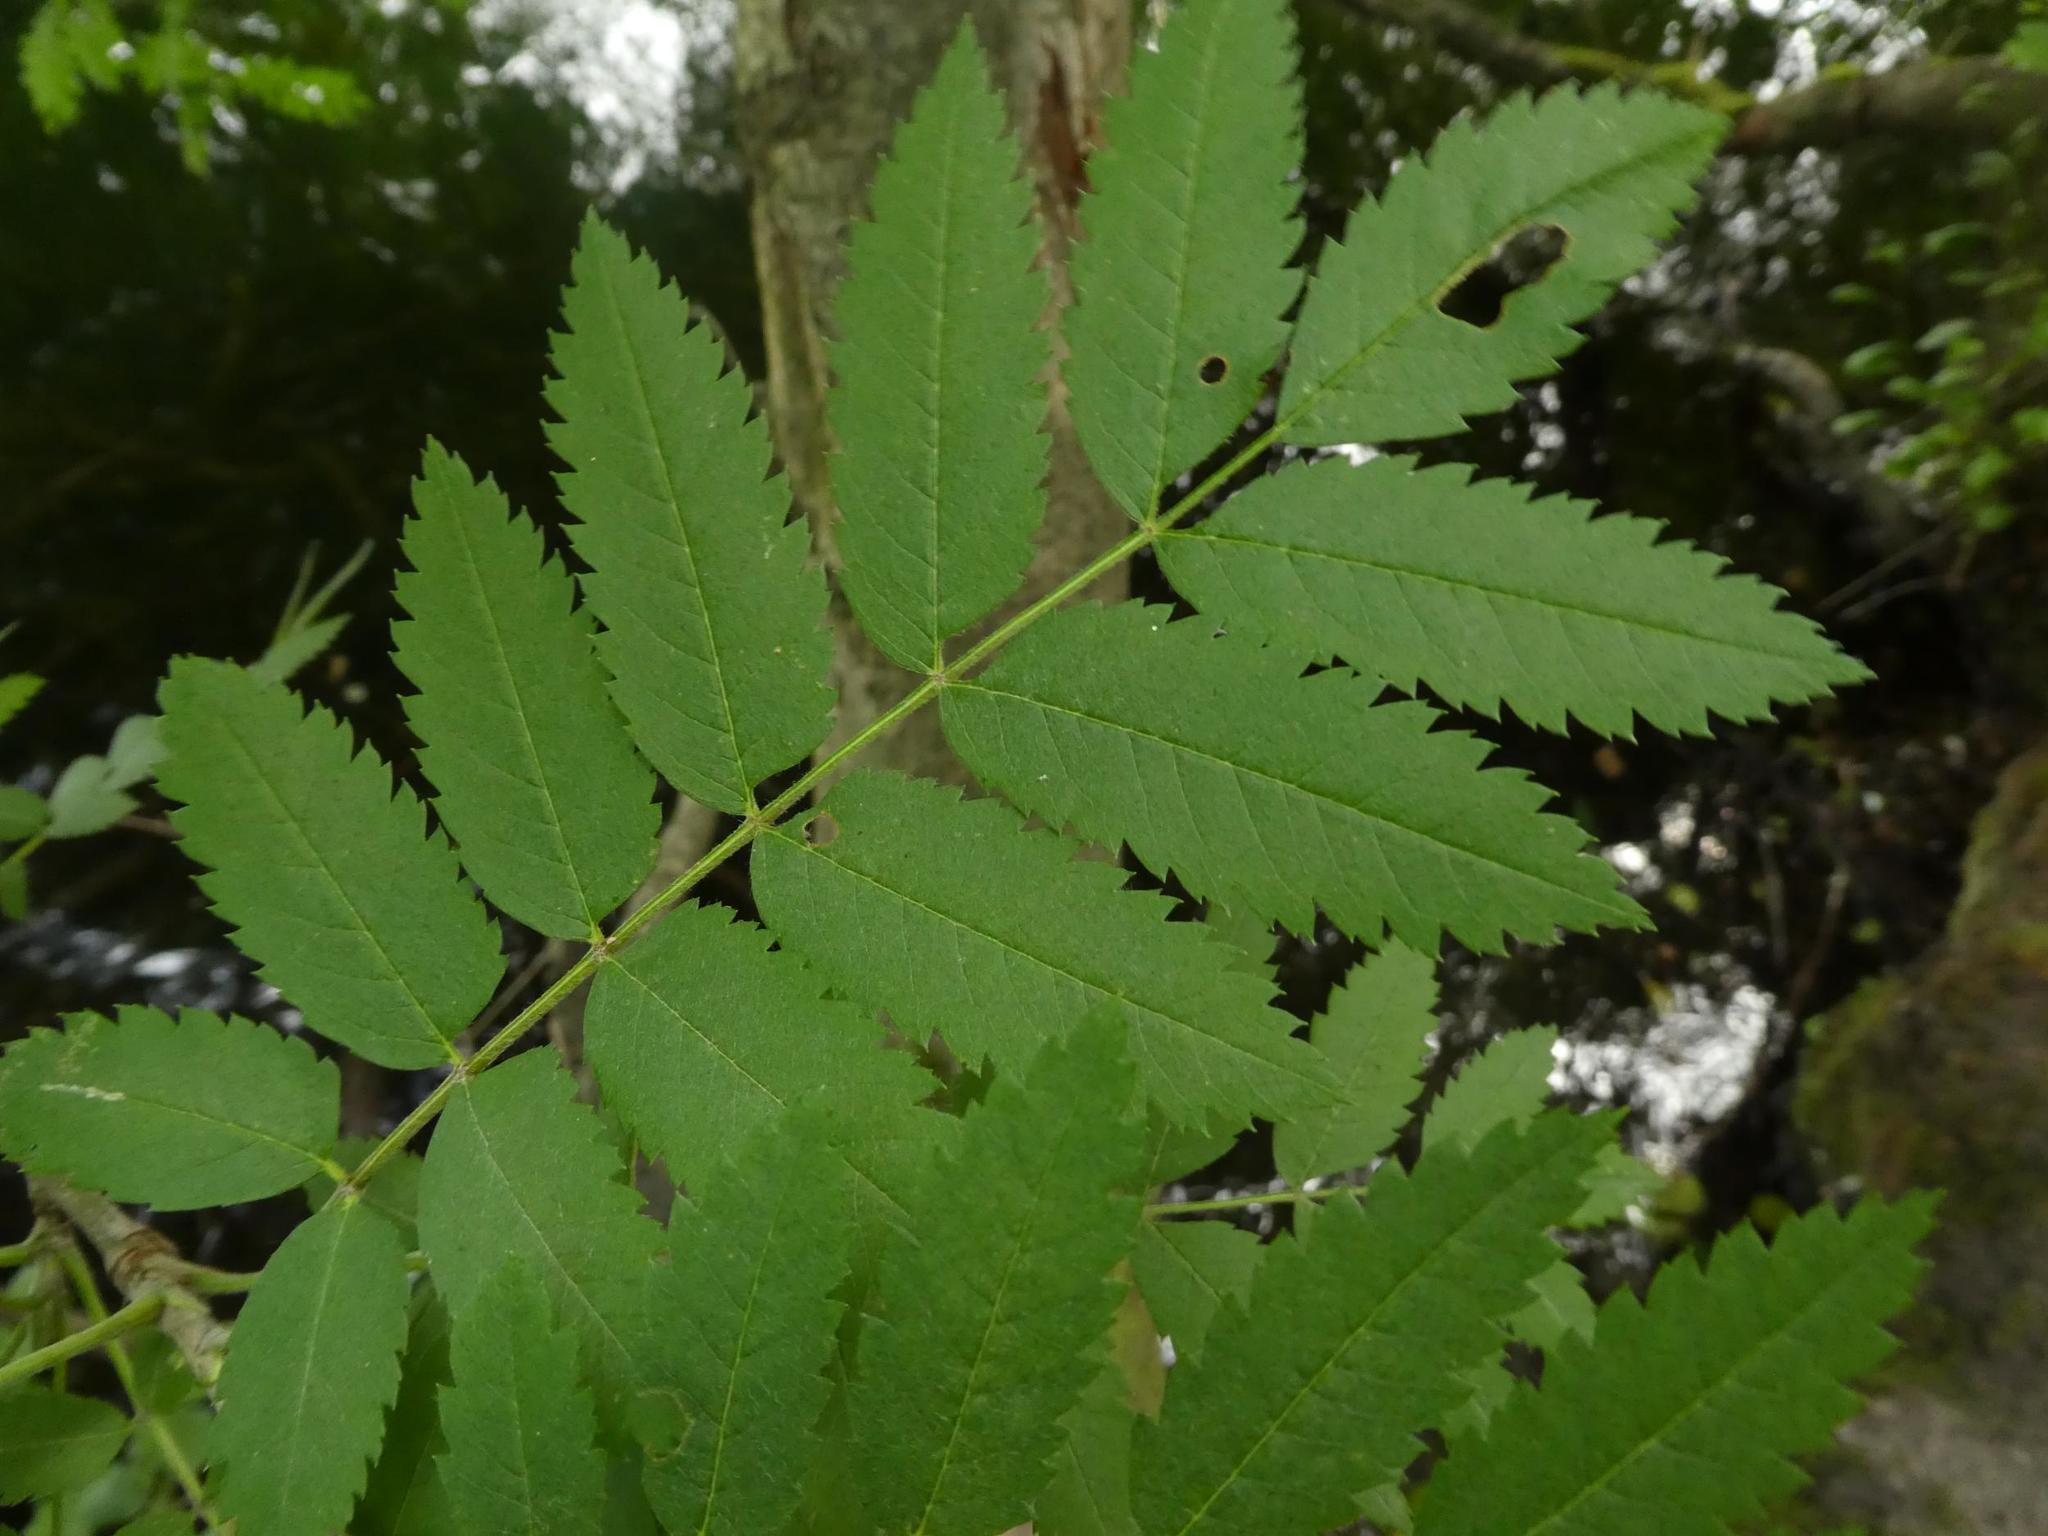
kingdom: Plantae
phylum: Tracheophyta
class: Magnoliopsida
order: Rosales
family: Rosaceae
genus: Sorbus
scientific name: Sorbus aucuparia
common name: Rowan
